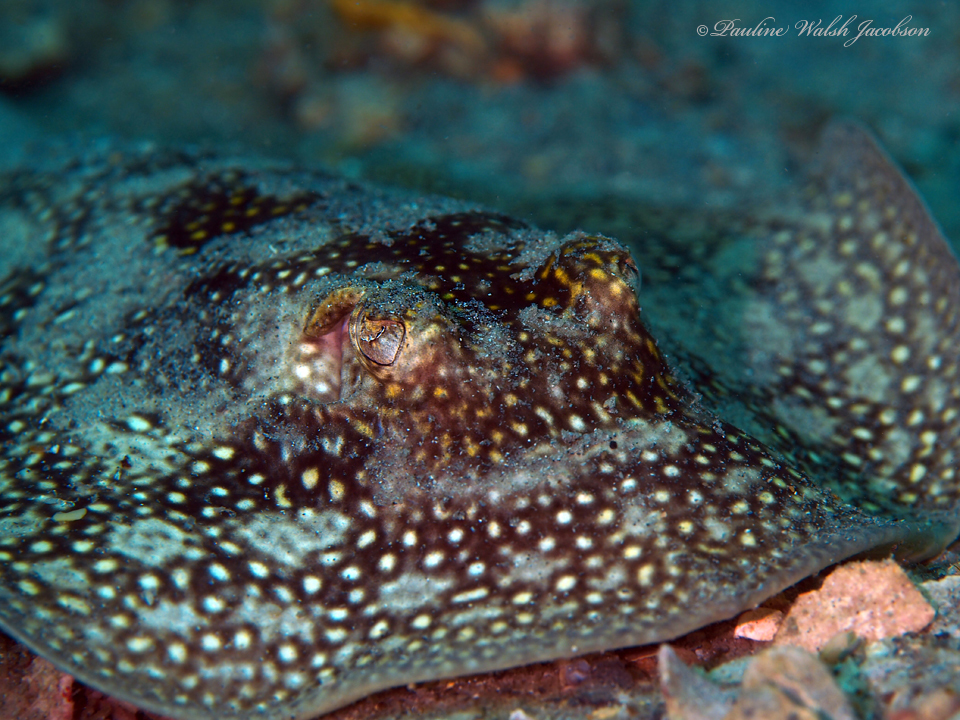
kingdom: Animalia
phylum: Chordata
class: Elasmobranchii
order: Myliobatiformes
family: Urotrygonidae
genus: Urobatis
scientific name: Urobatis jamaicensis
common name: Yellow stingray
